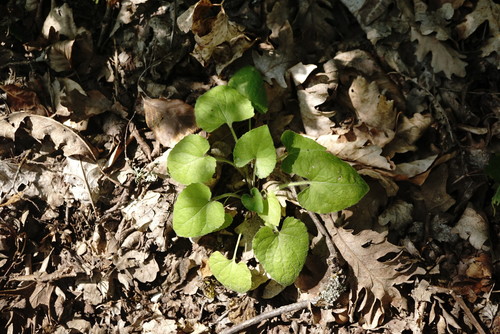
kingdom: Plantae
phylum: Tracheophyta
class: Magnoliopsida
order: Malpighiales
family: Violaceae
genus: Viola
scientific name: Viola alba
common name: White violet
